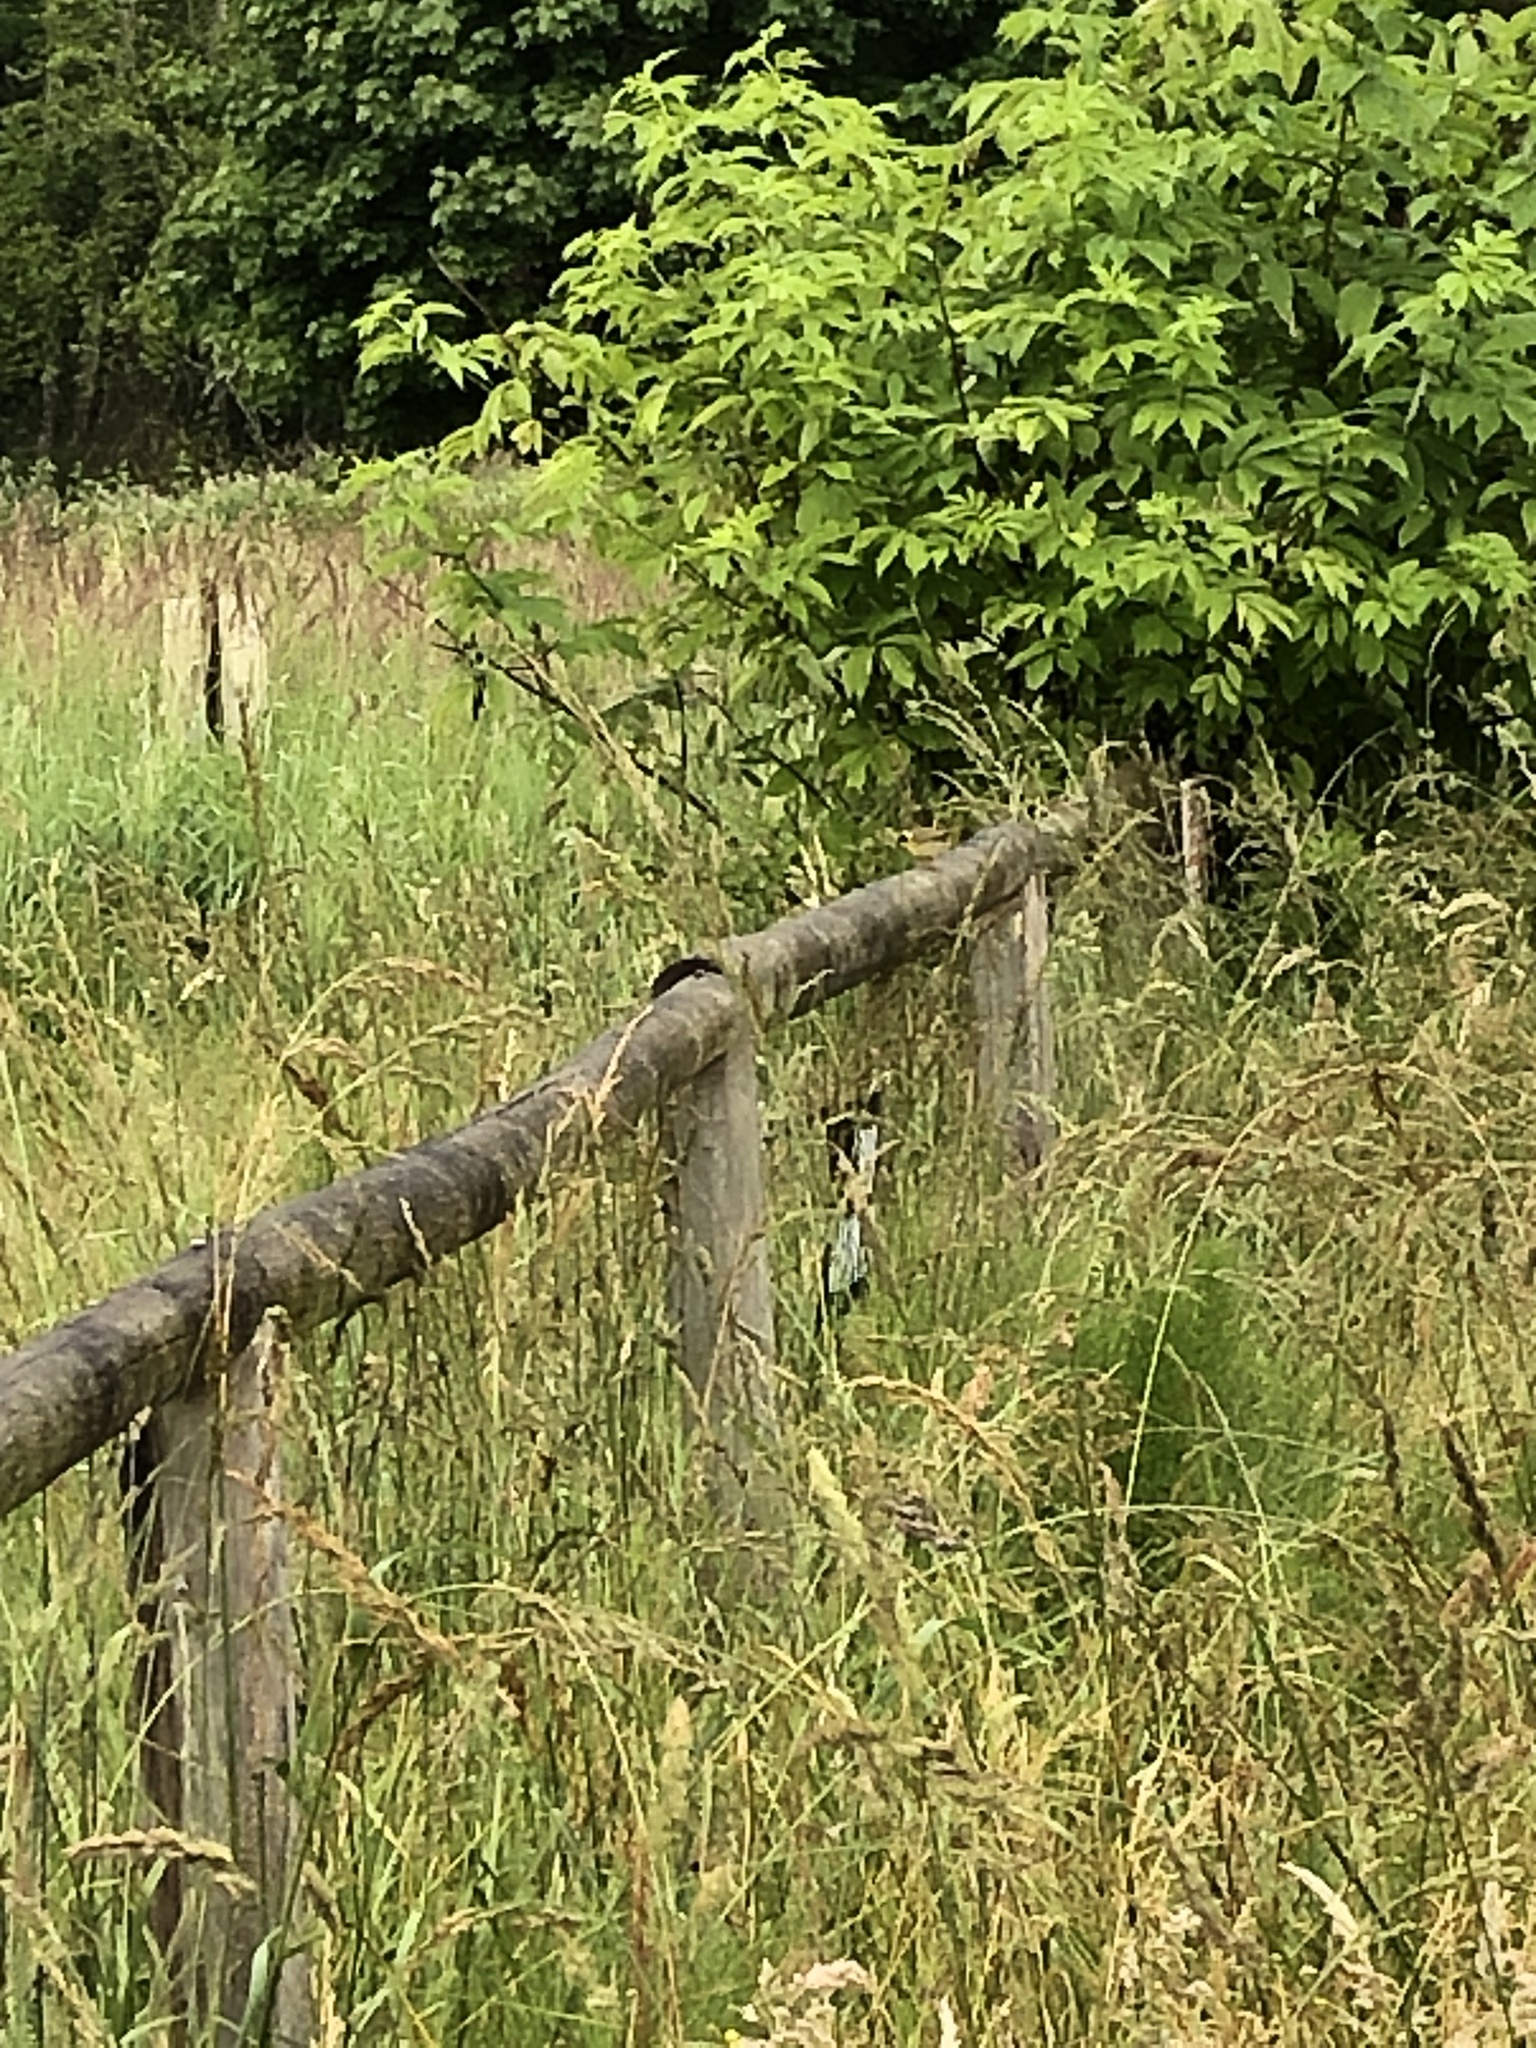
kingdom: Animalia
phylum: Chordata
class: Aves
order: Passeriformes
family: Parulidae
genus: Geothlypis
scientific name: Geothlypis trichas
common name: Common yellowthroat
